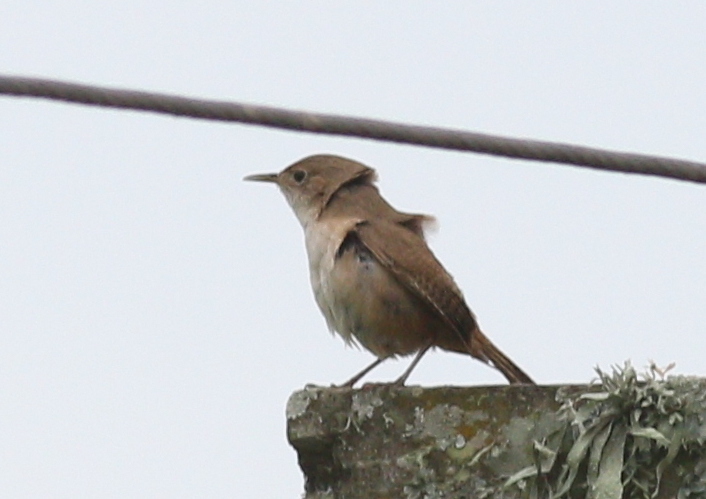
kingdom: Animalia
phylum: Chordata
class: Aves
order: Passeriformes
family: Troglodytidae
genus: Troglodytes
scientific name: Troglodytes aedon
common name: House wren
